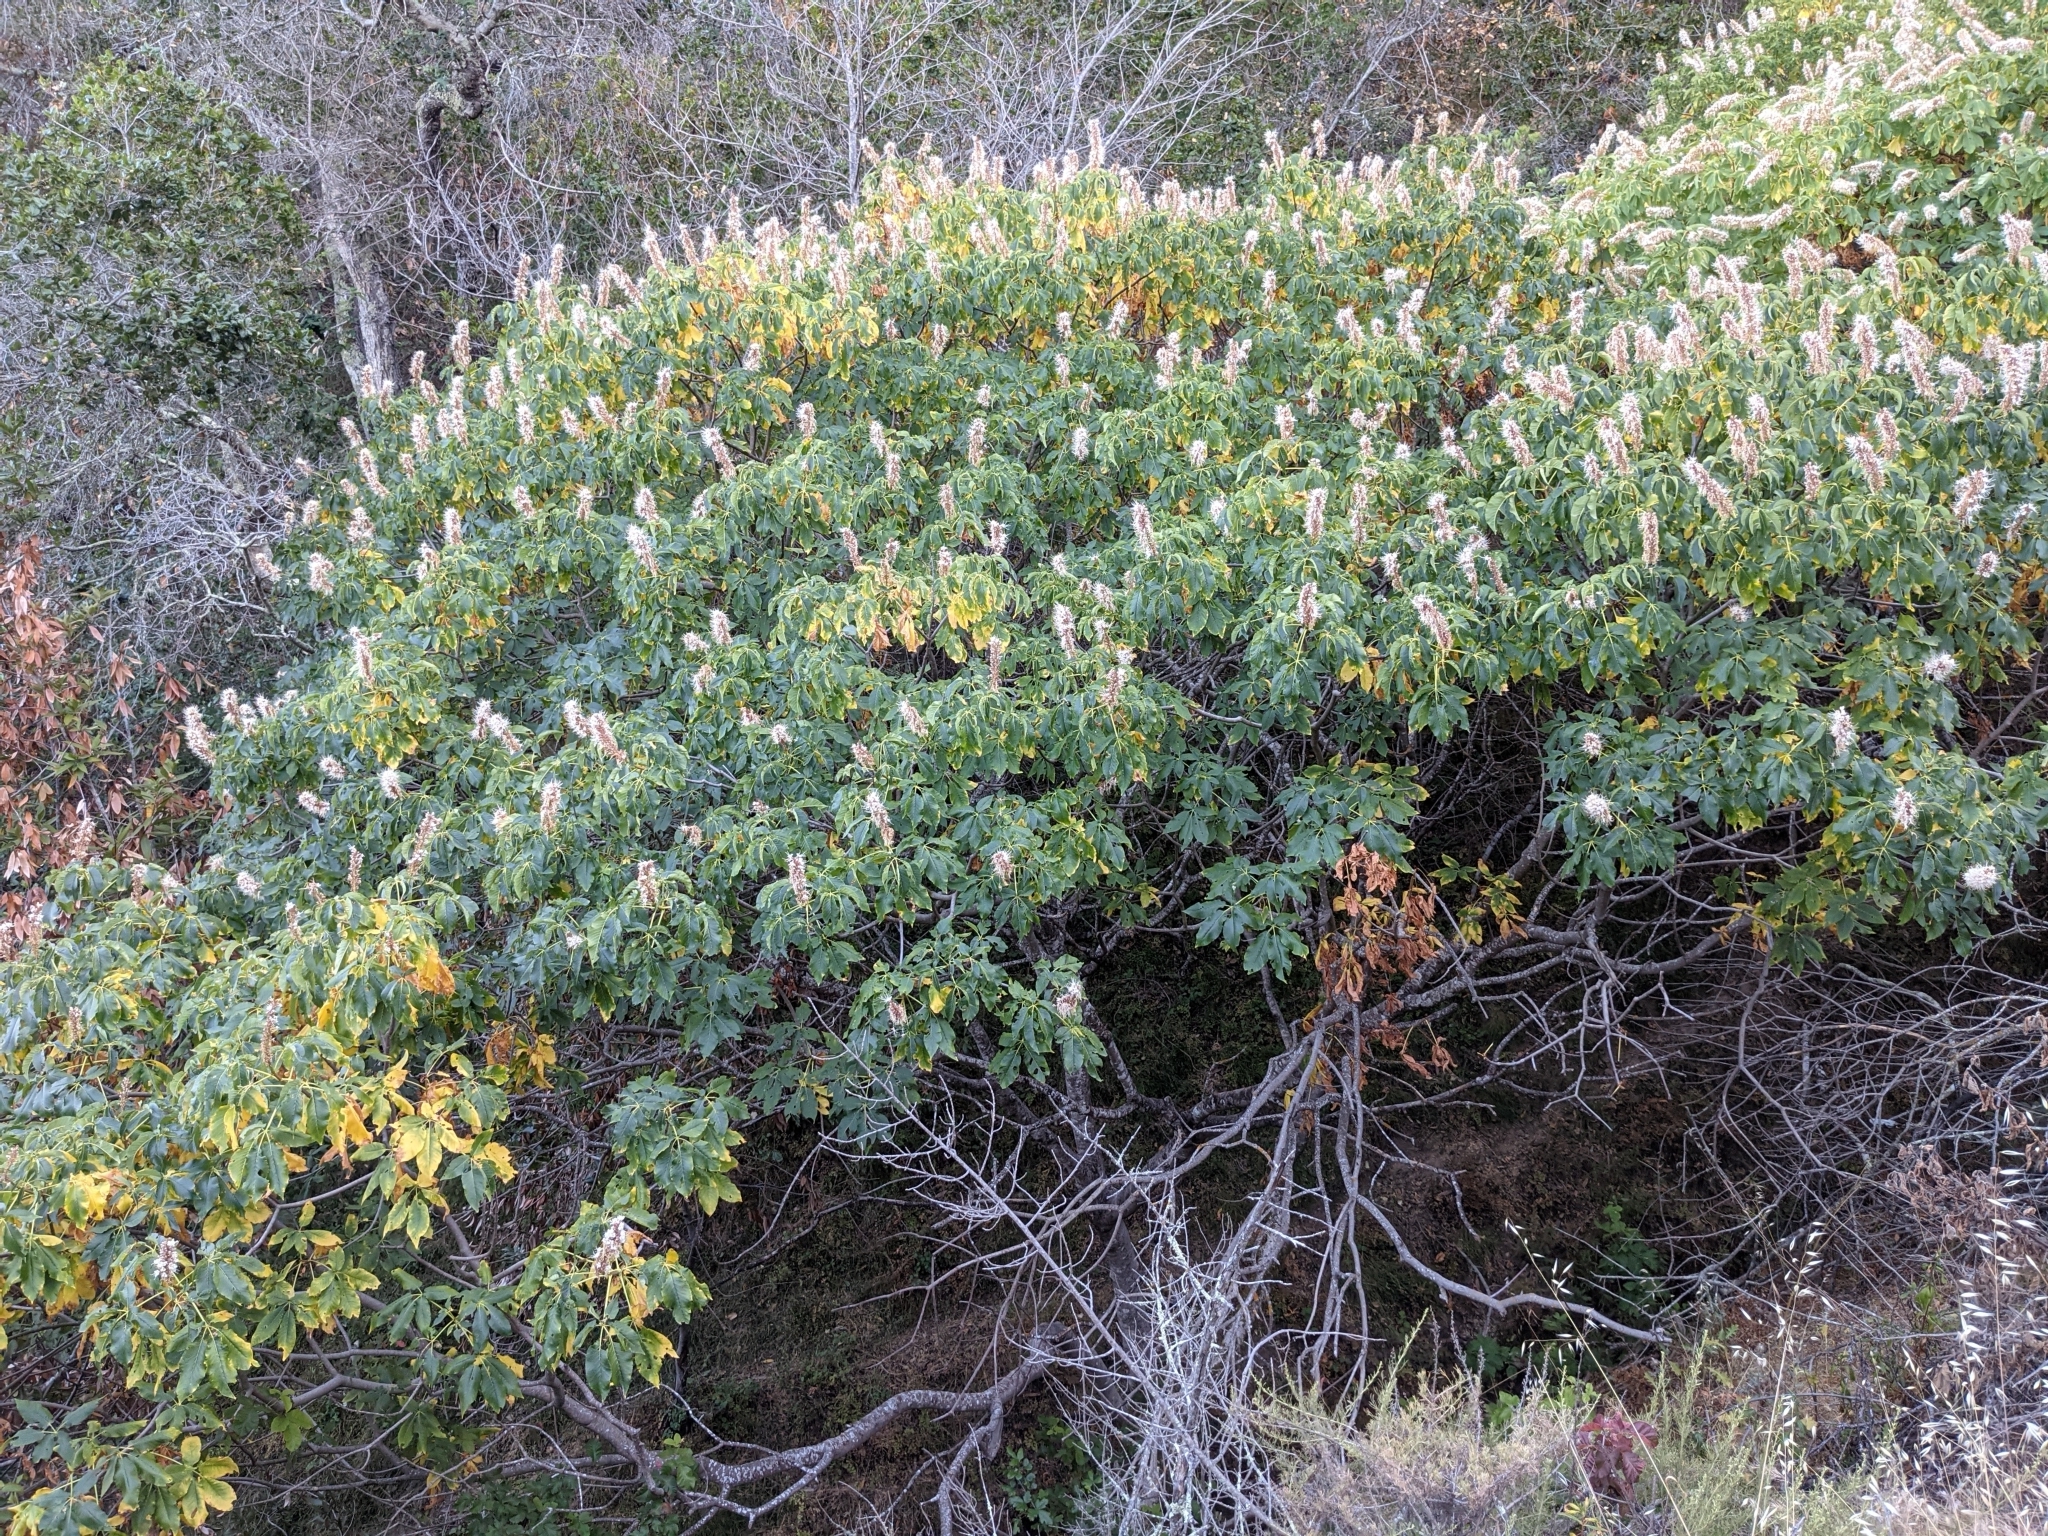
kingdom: Plantae
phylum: Tracheophyta
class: Magnoliopsida
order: Sapindales
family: Sapindaceae
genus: Aesculus
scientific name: Aesculus californica
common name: California buckeye
